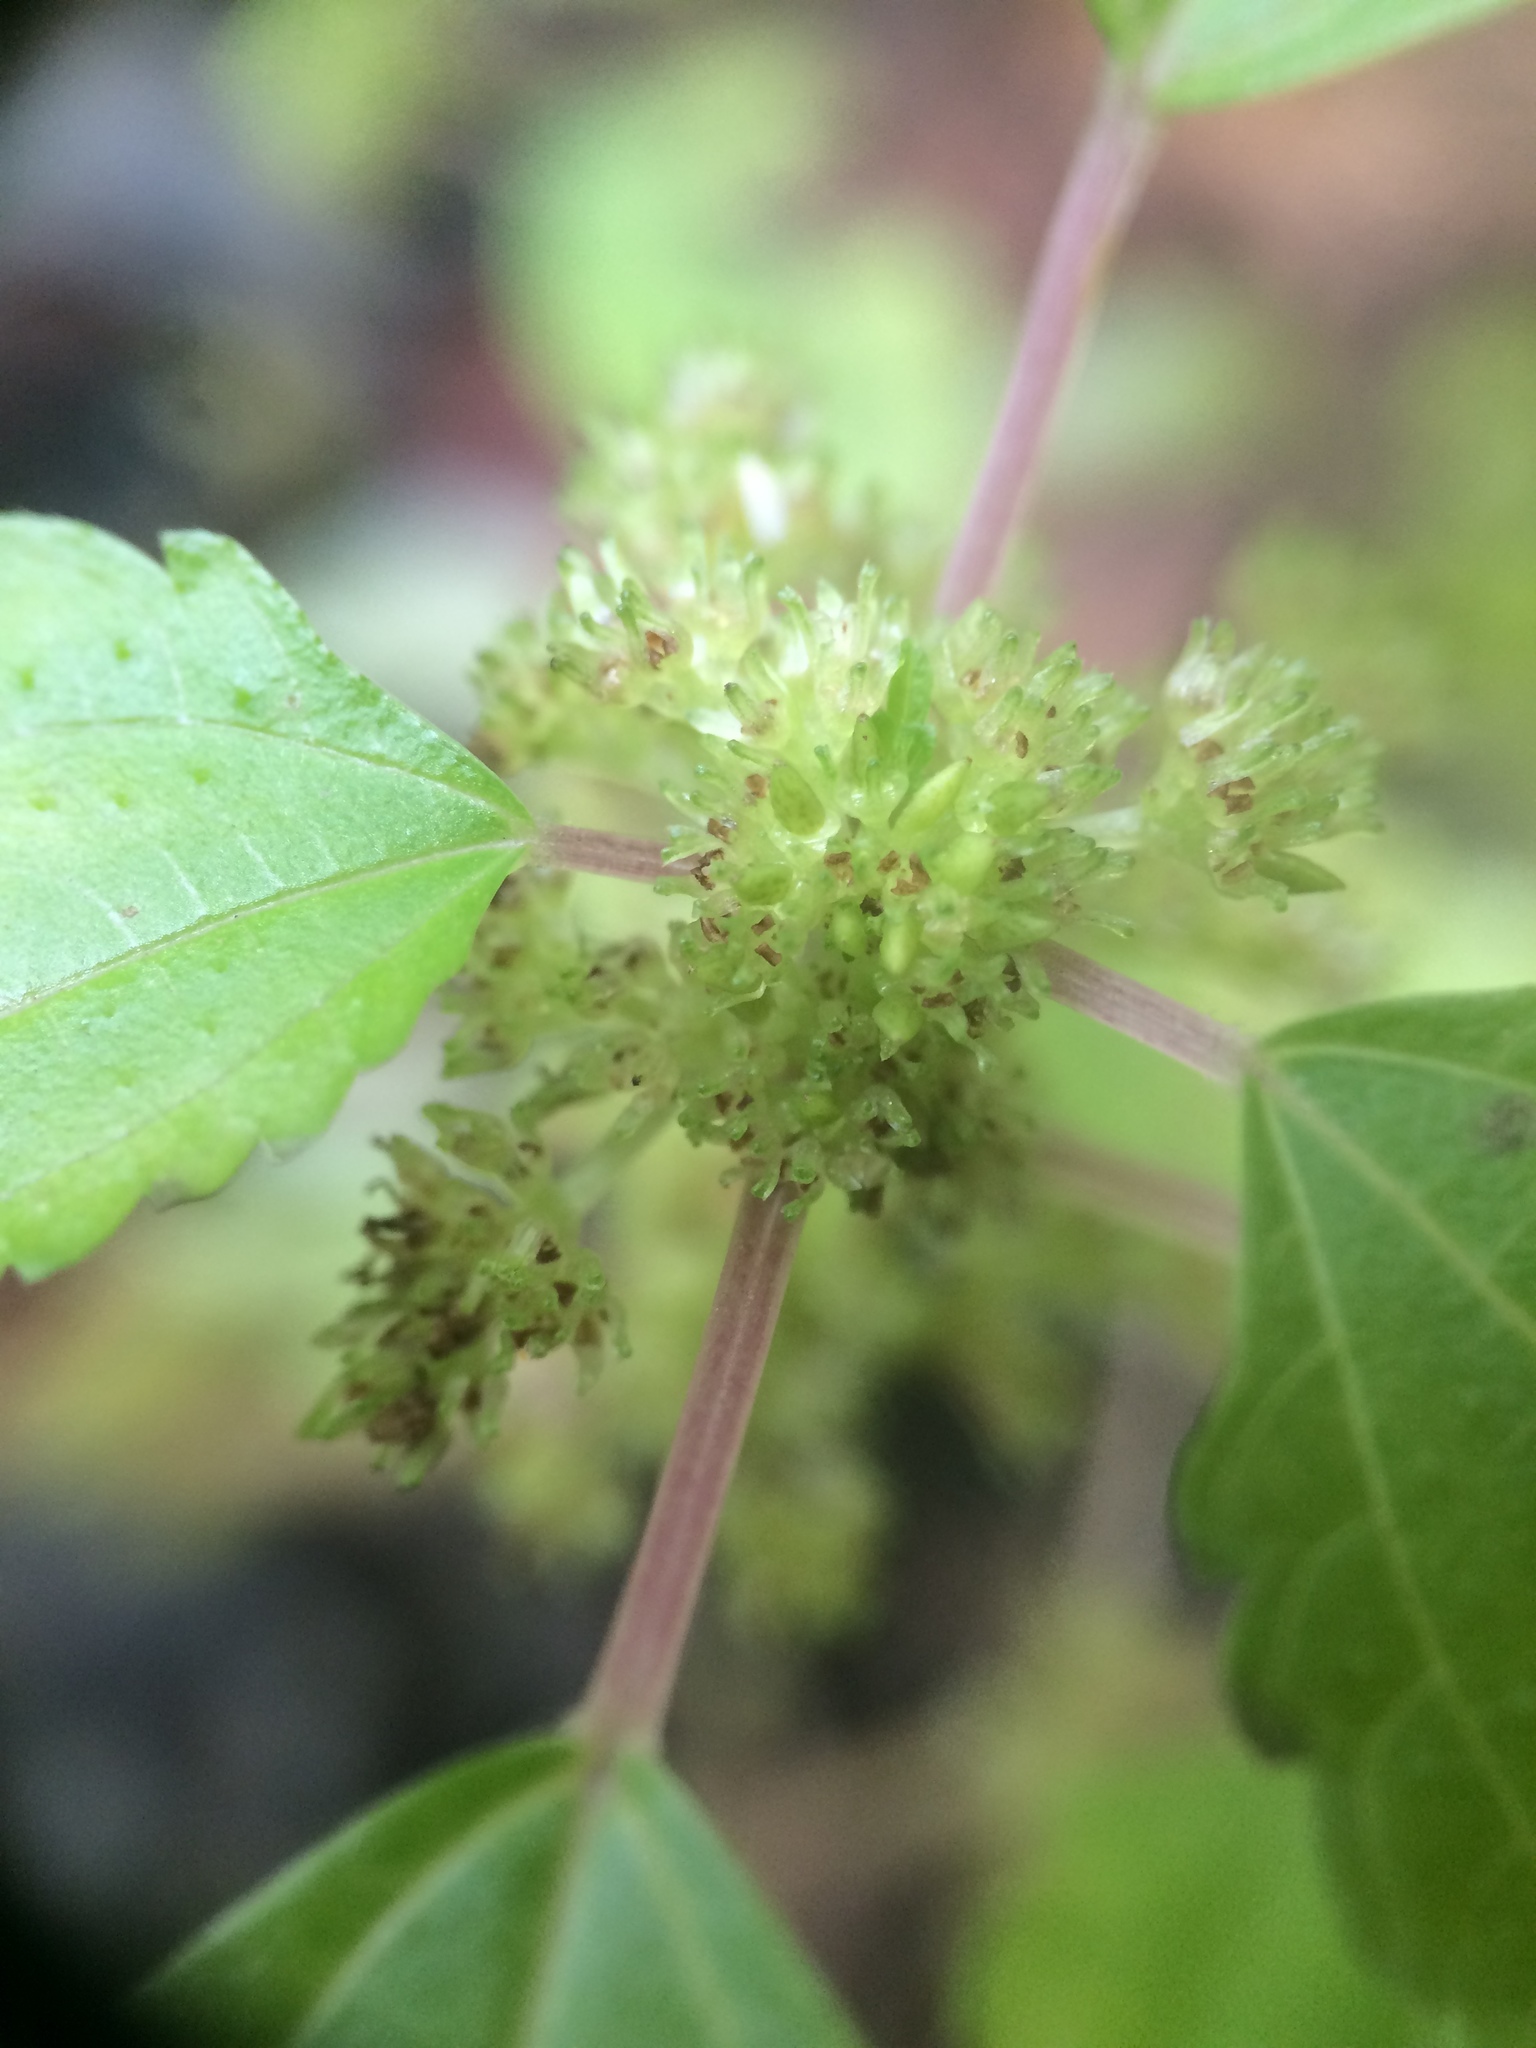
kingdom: Plantae
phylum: Tracheophyta
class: Magnoliopsida
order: Rosales
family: Urticaceae
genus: Pilea
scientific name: Pilea pumila
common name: Clearweed
